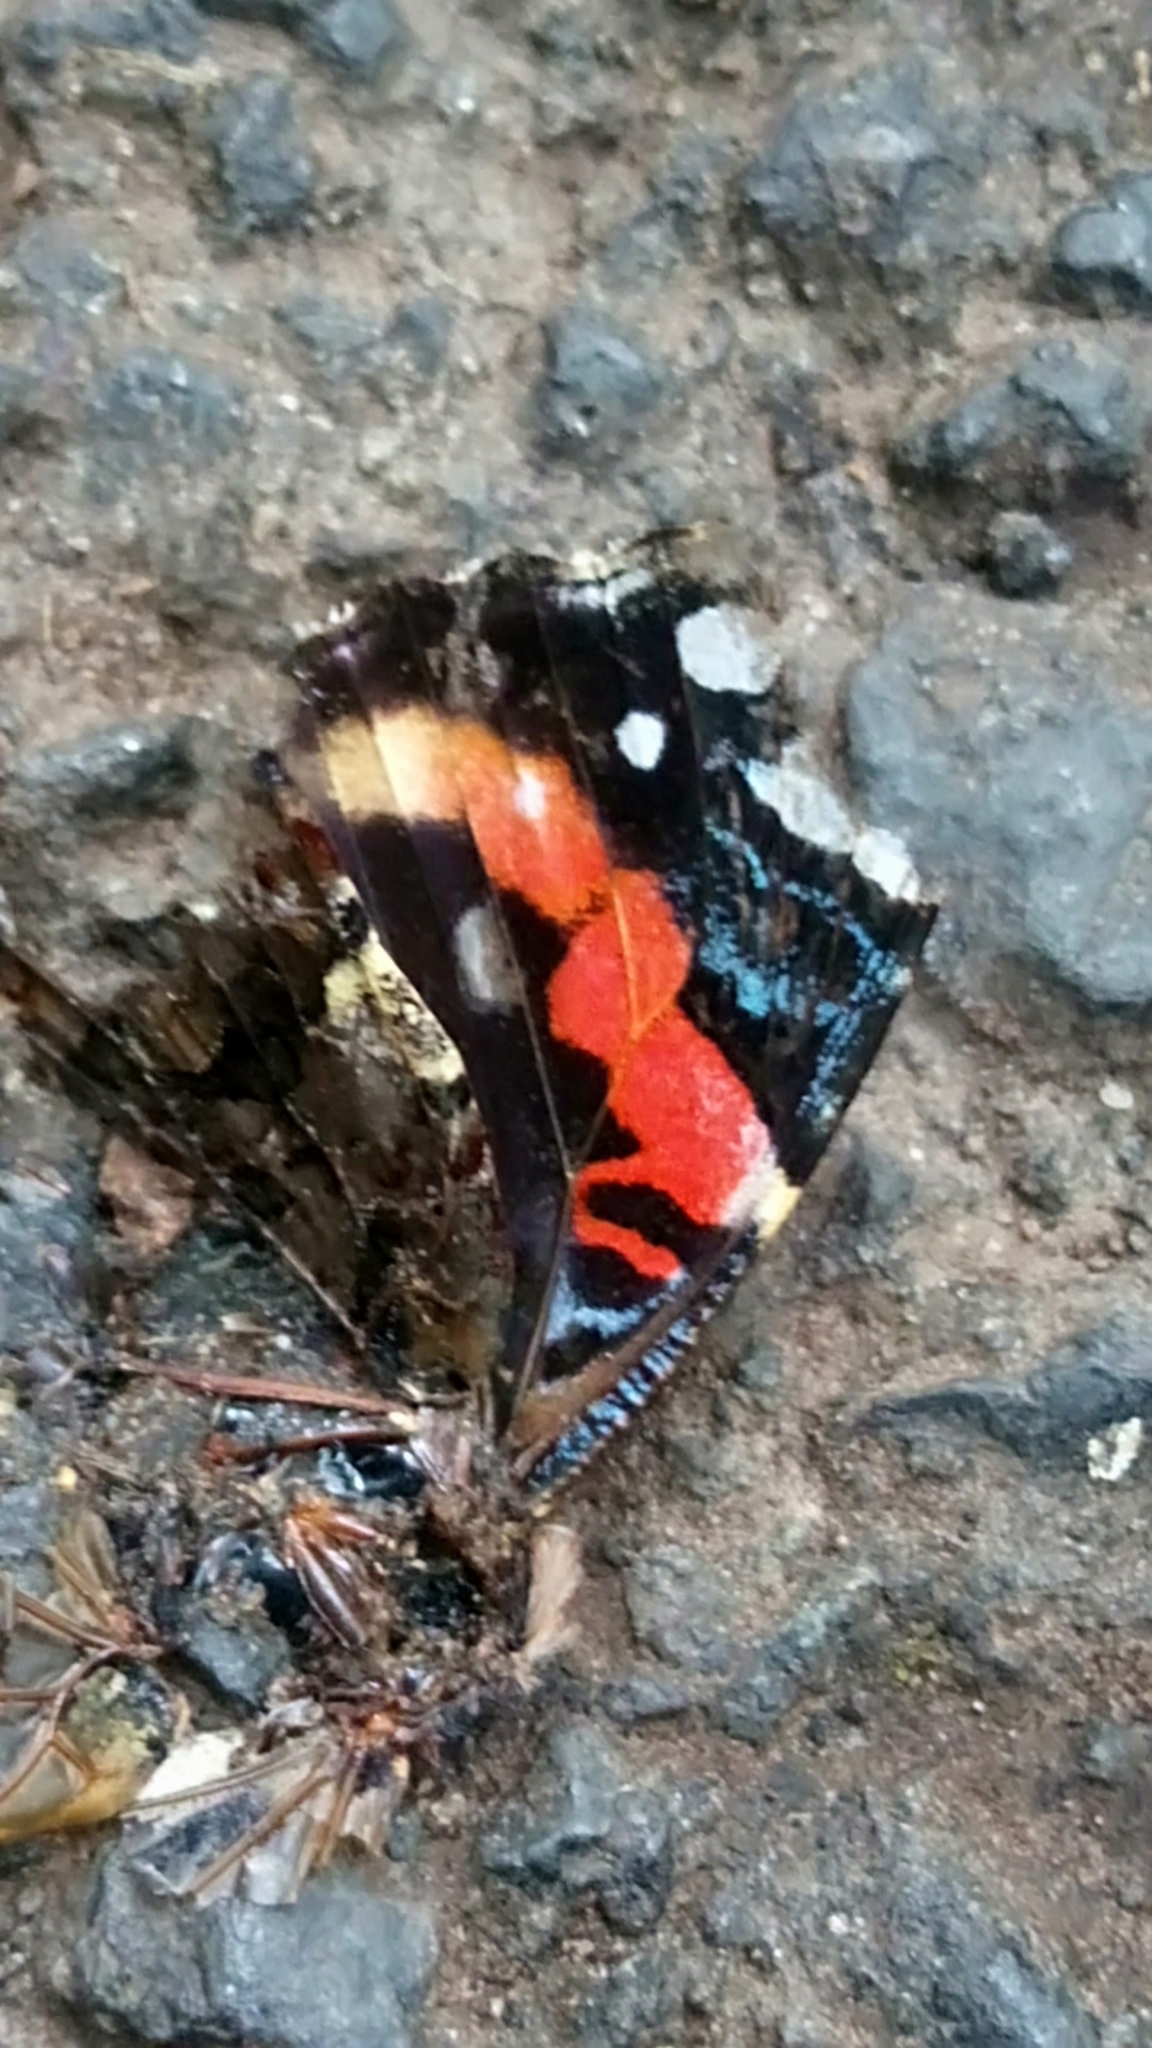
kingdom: Animalia
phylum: Arthropoda
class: Insecta
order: Lepidoptera
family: Nymphalidae
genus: Vanessa
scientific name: Vanessa atalanta
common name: Red admiral
